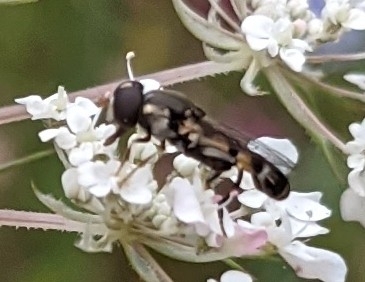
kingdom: Animalia
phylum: Arthropoda
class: Insecta
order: Diptera
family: Syrphidae
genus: Syritta
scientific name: Syritta pipiens
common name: Hover fly
